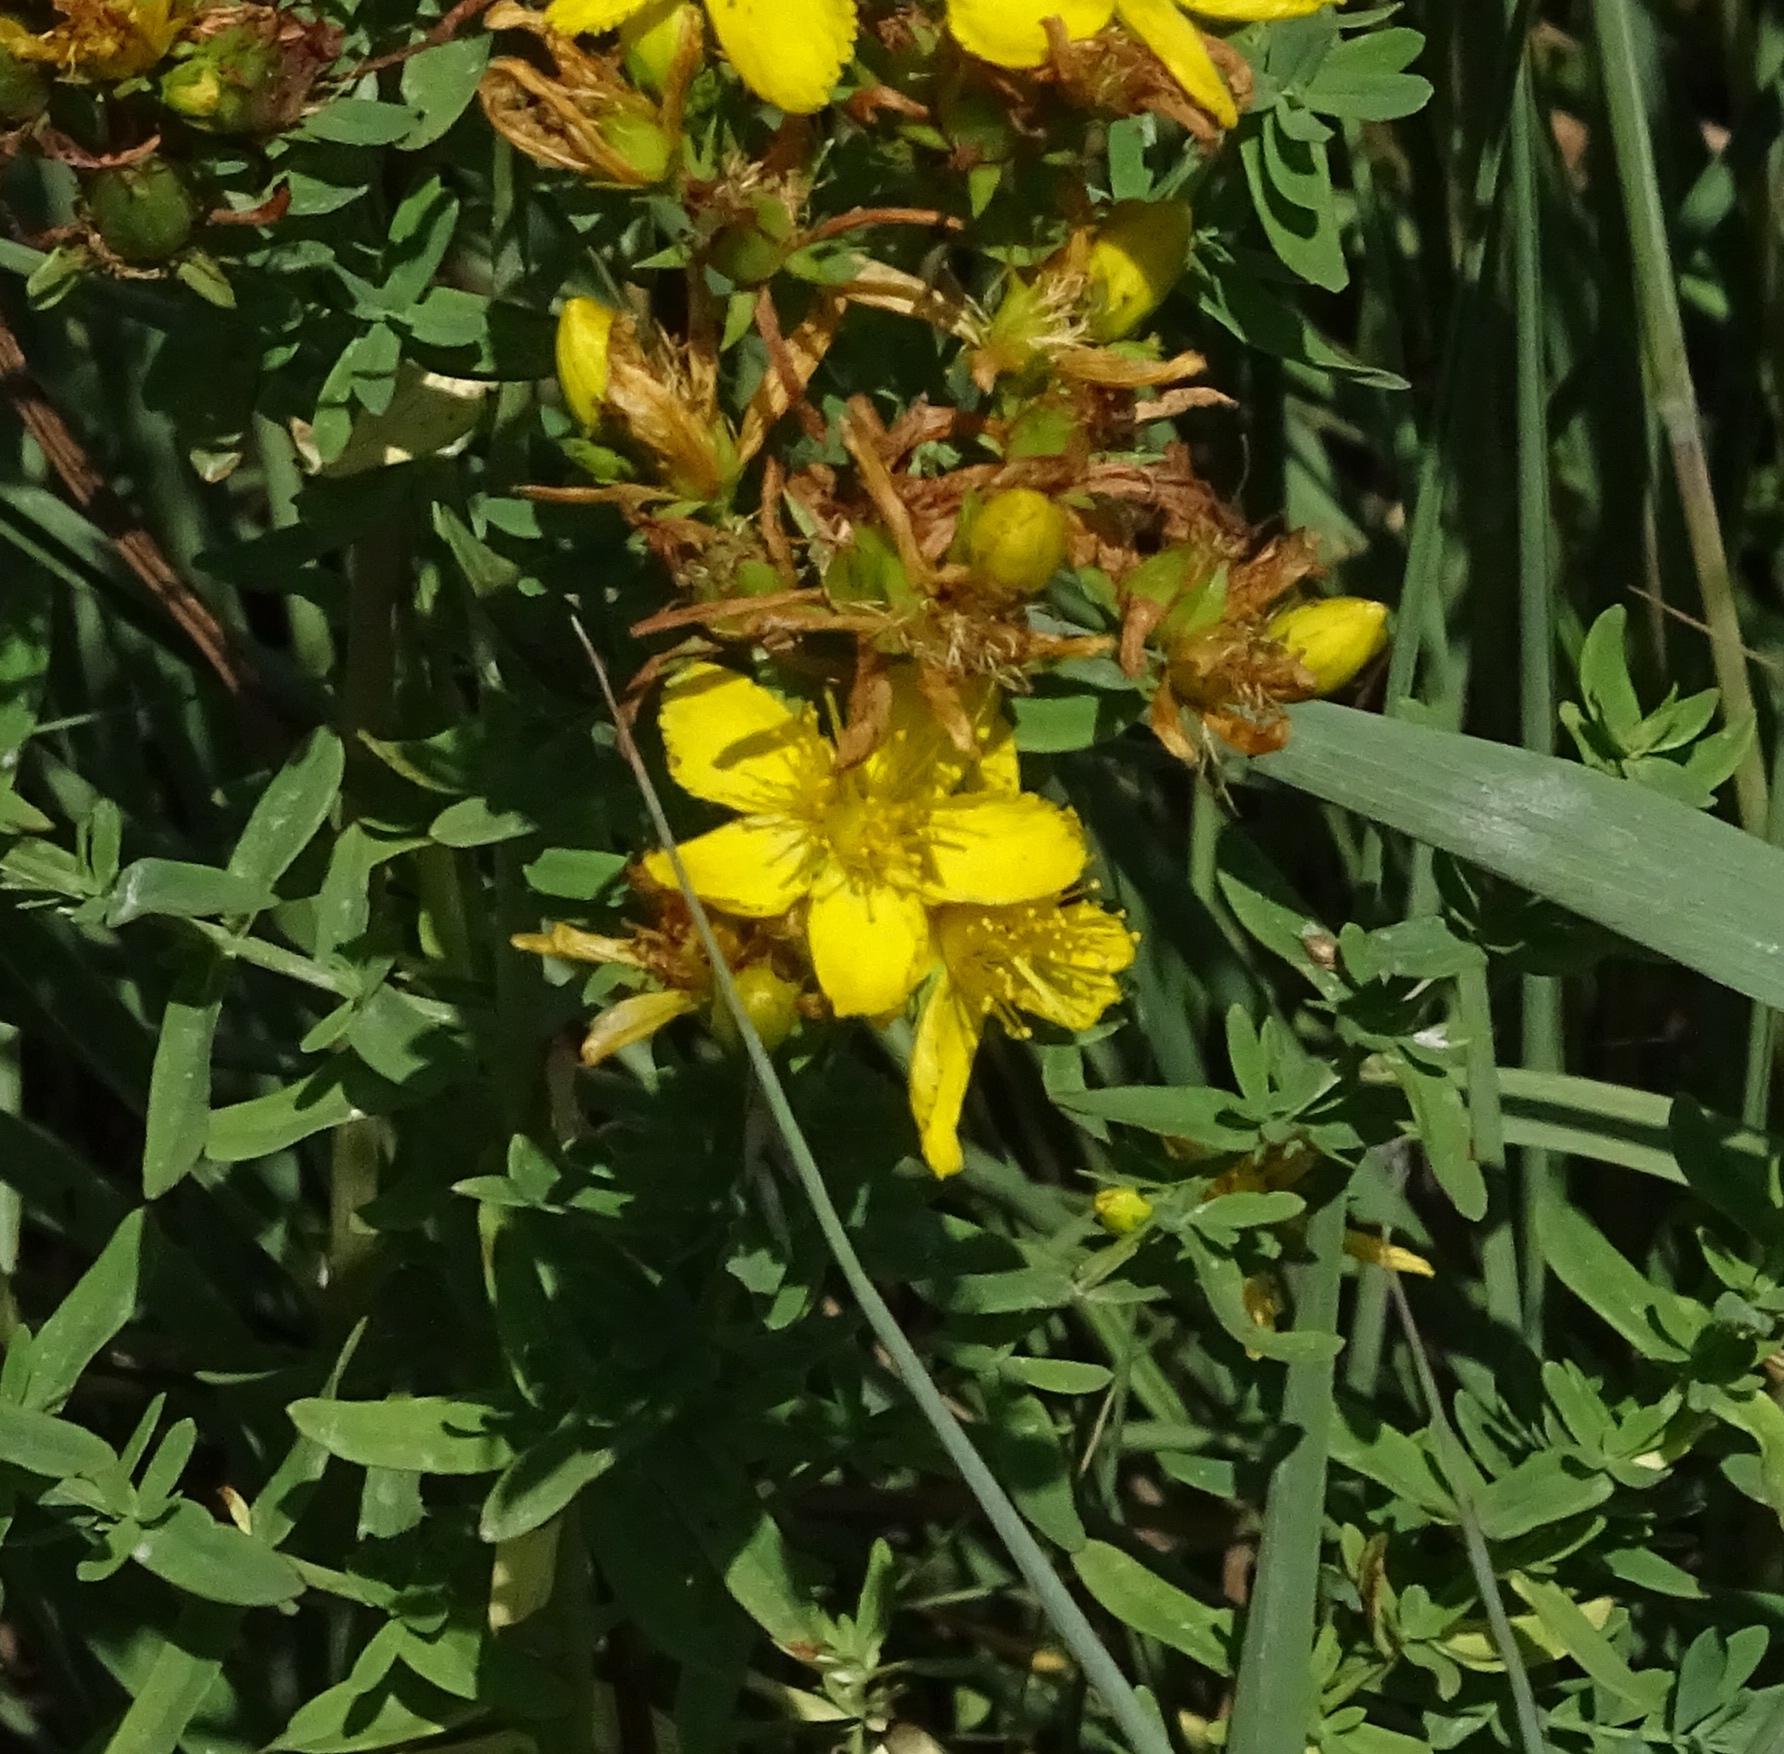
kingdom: Plantae
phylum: Tracheophyta
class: Magnoliopsida
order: Malpighiales
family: Hypericaceae
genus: Hypericum
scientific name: Hypericum perforatum
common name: Common st. johnswort
